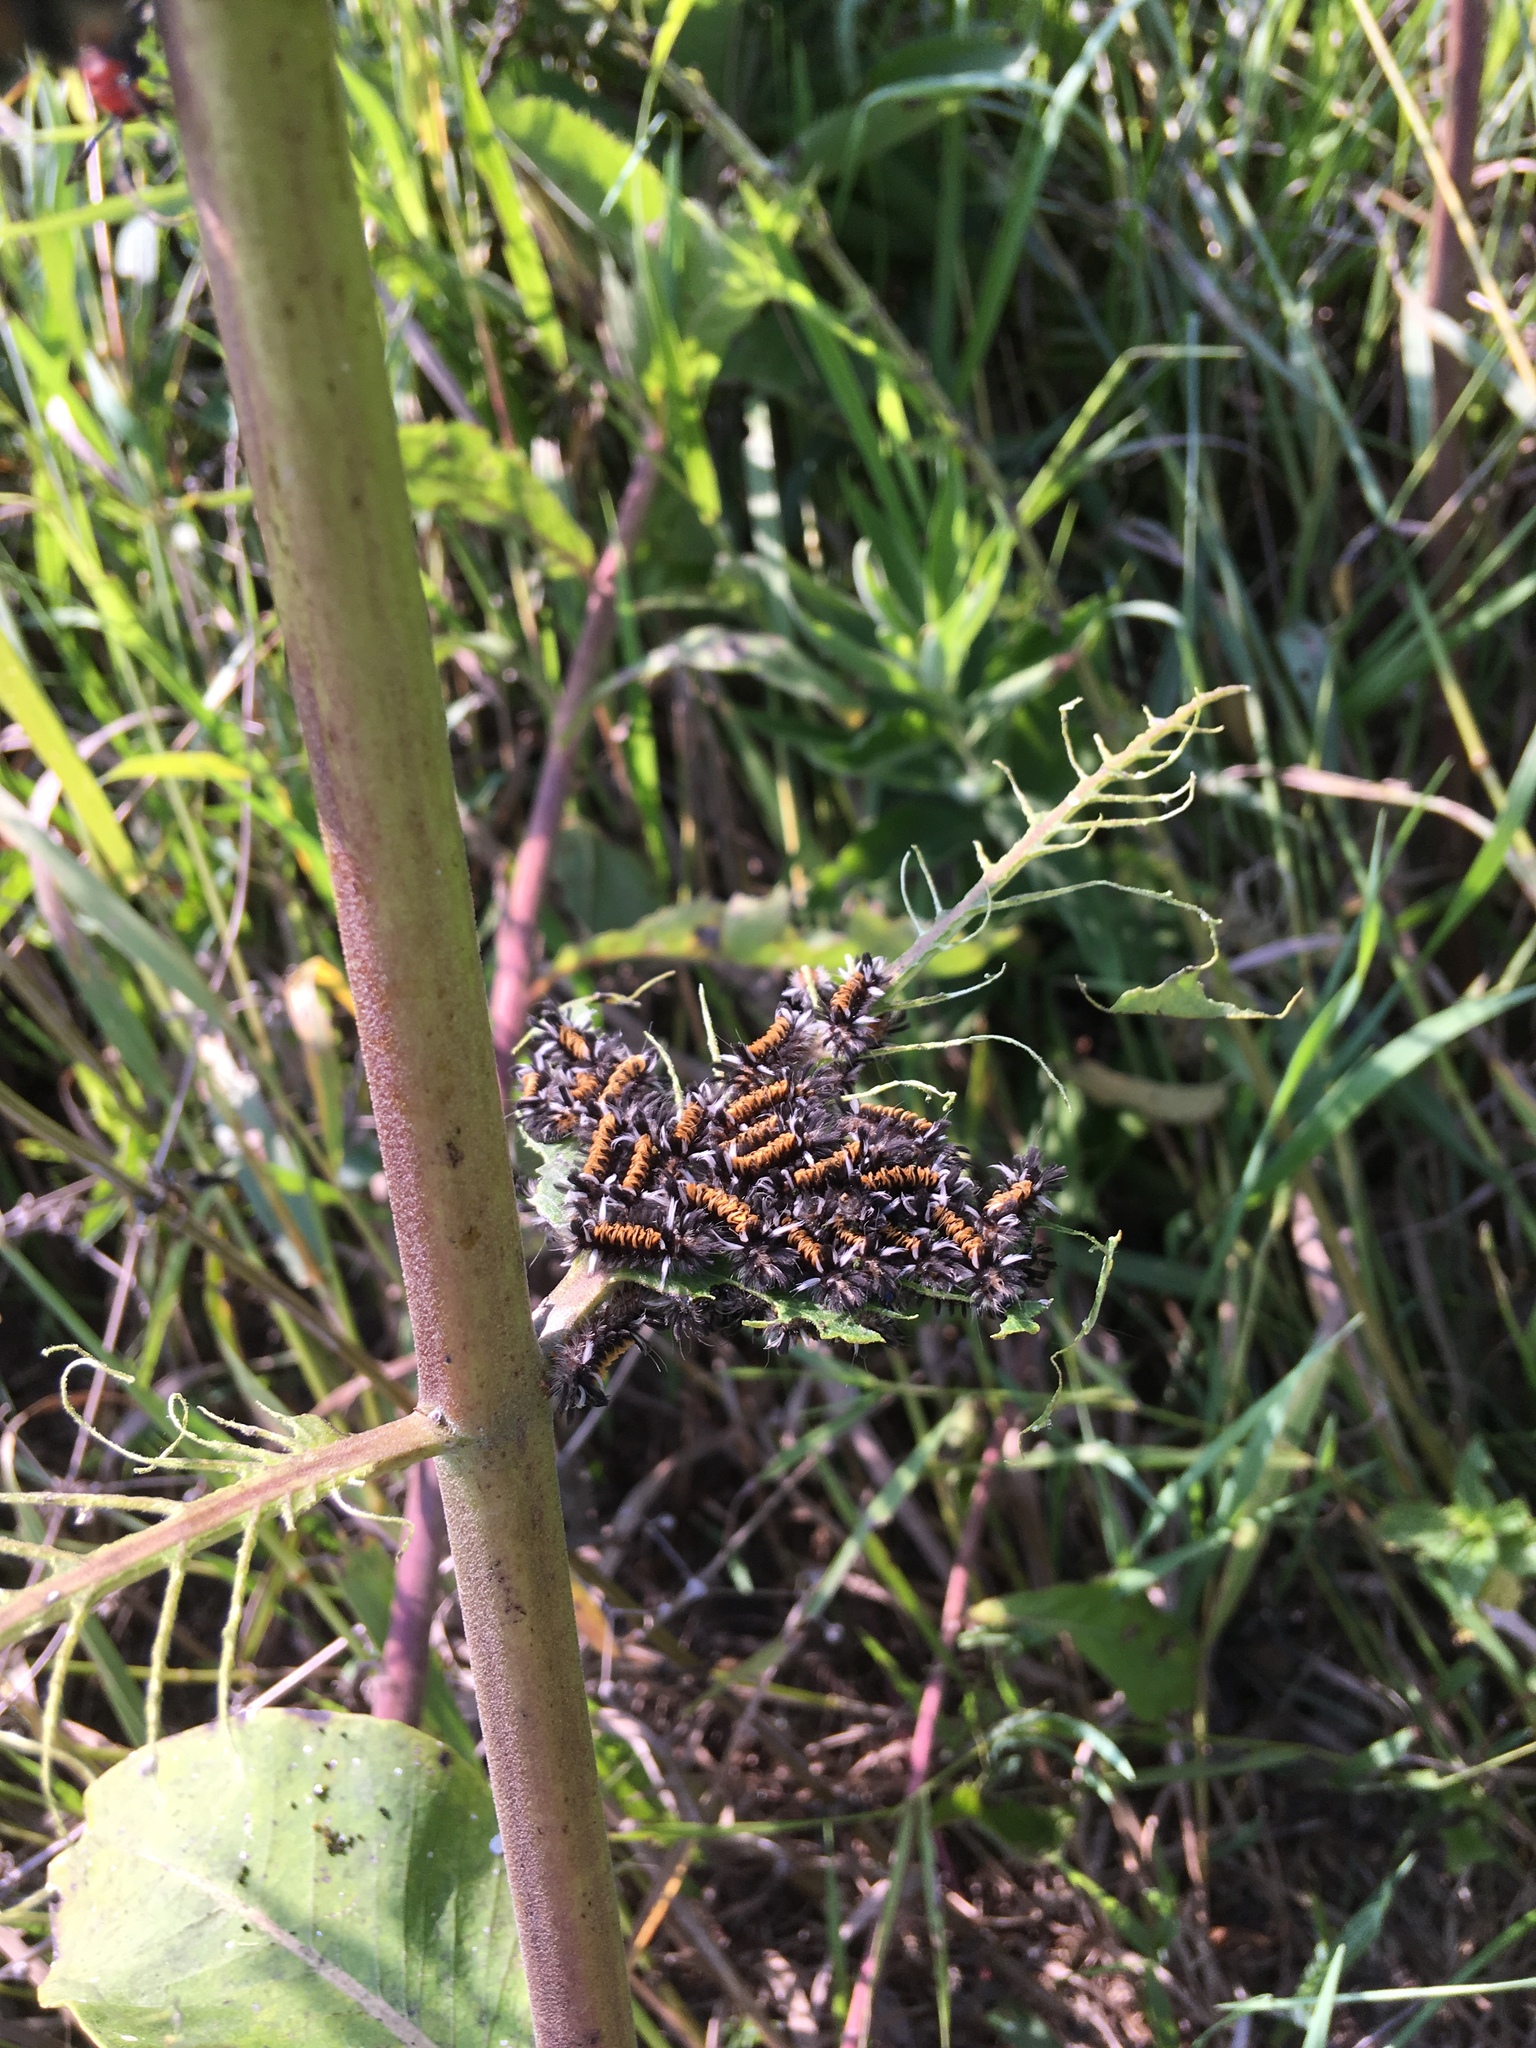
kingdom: Animalia
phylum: Arthropoda
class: Insecta
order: Lepidoptera
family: Erebidae
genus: Euchaetes
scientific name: Euchaetes egle
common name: Milkweed tussock moth
